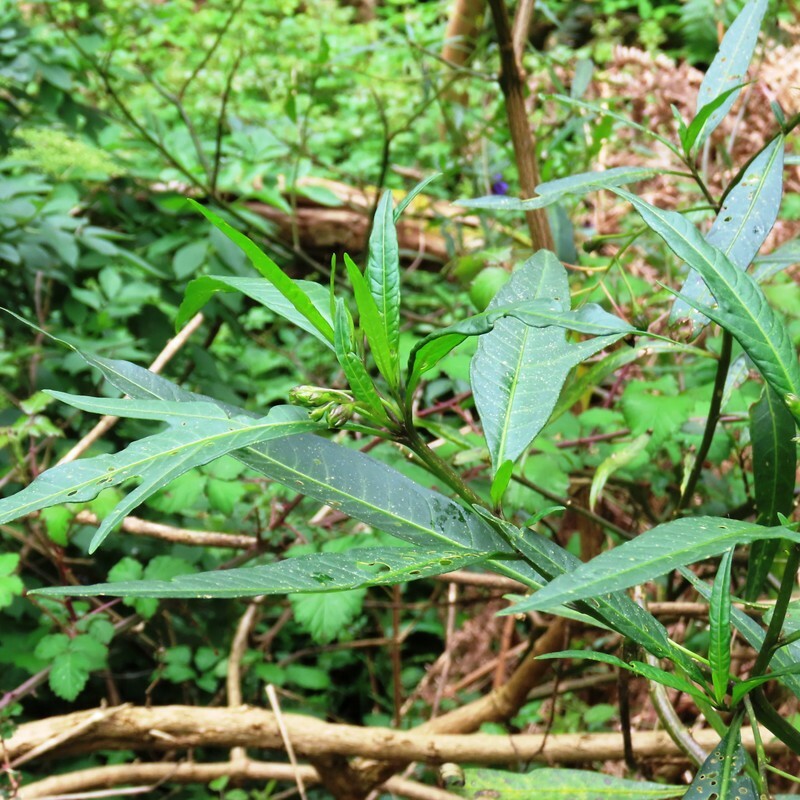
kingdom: Plantae
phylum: Tracheophyta
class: Magnoliopsida
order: Solanales
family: Solanaceae
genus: Solanum
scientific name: Solanum laciniatum
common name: Kangaroo-apple
